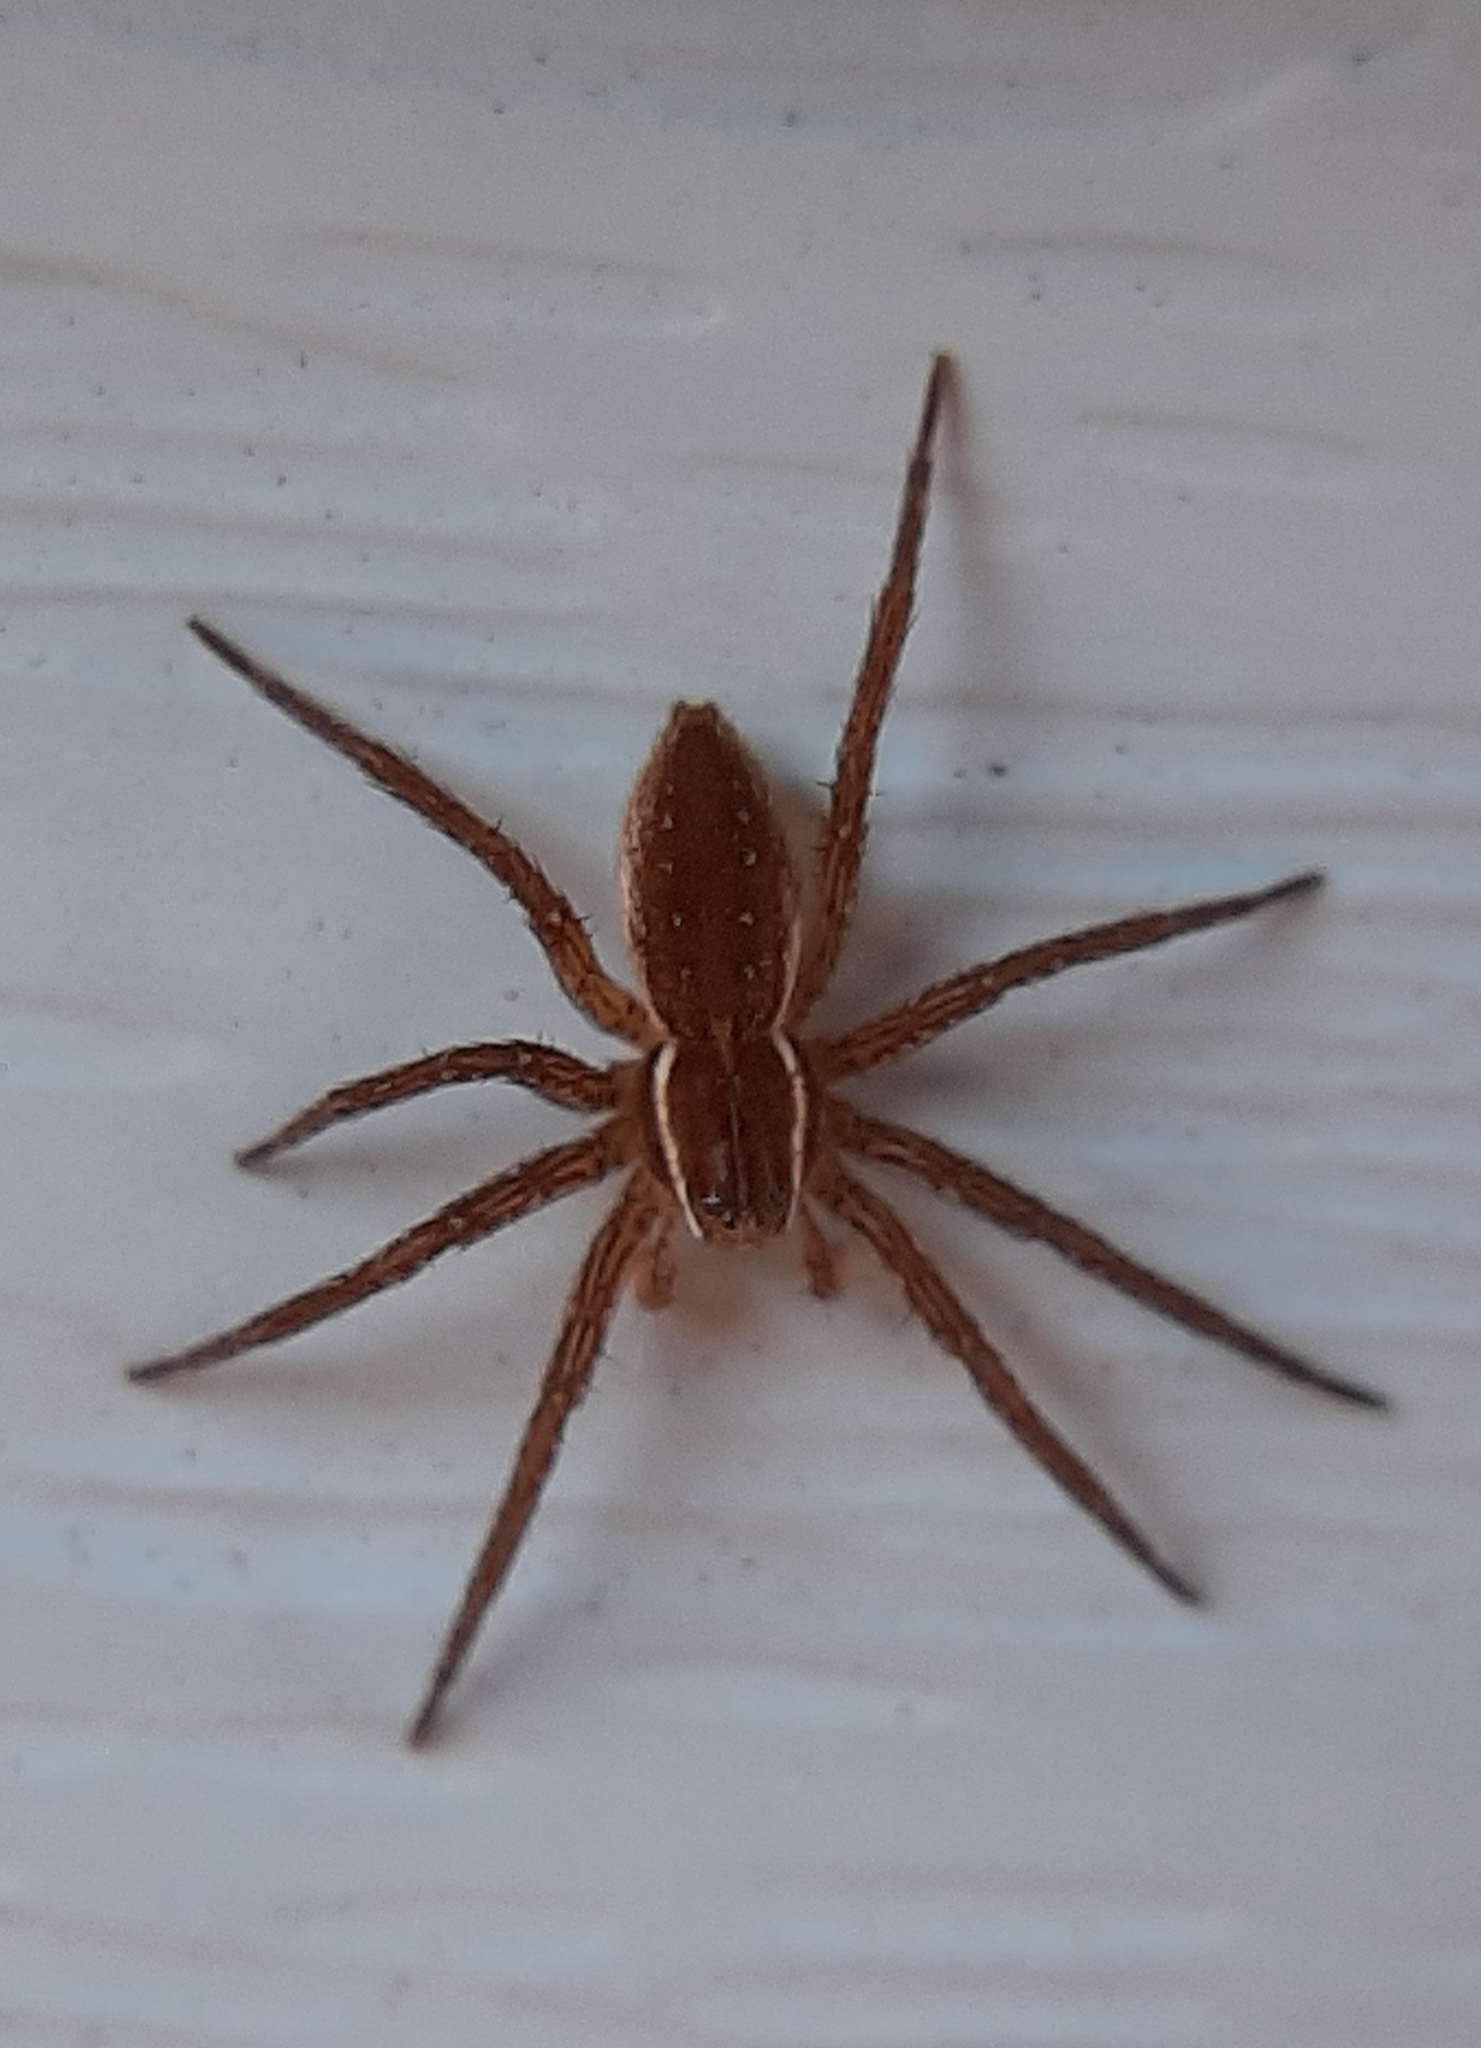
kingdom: Animalia
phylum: Arthropoda
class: Arachnida
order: Araneae
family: Pisauridae
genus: Dolomedes
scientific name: Dolomedes triton
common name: Six-spotted fishing spider
